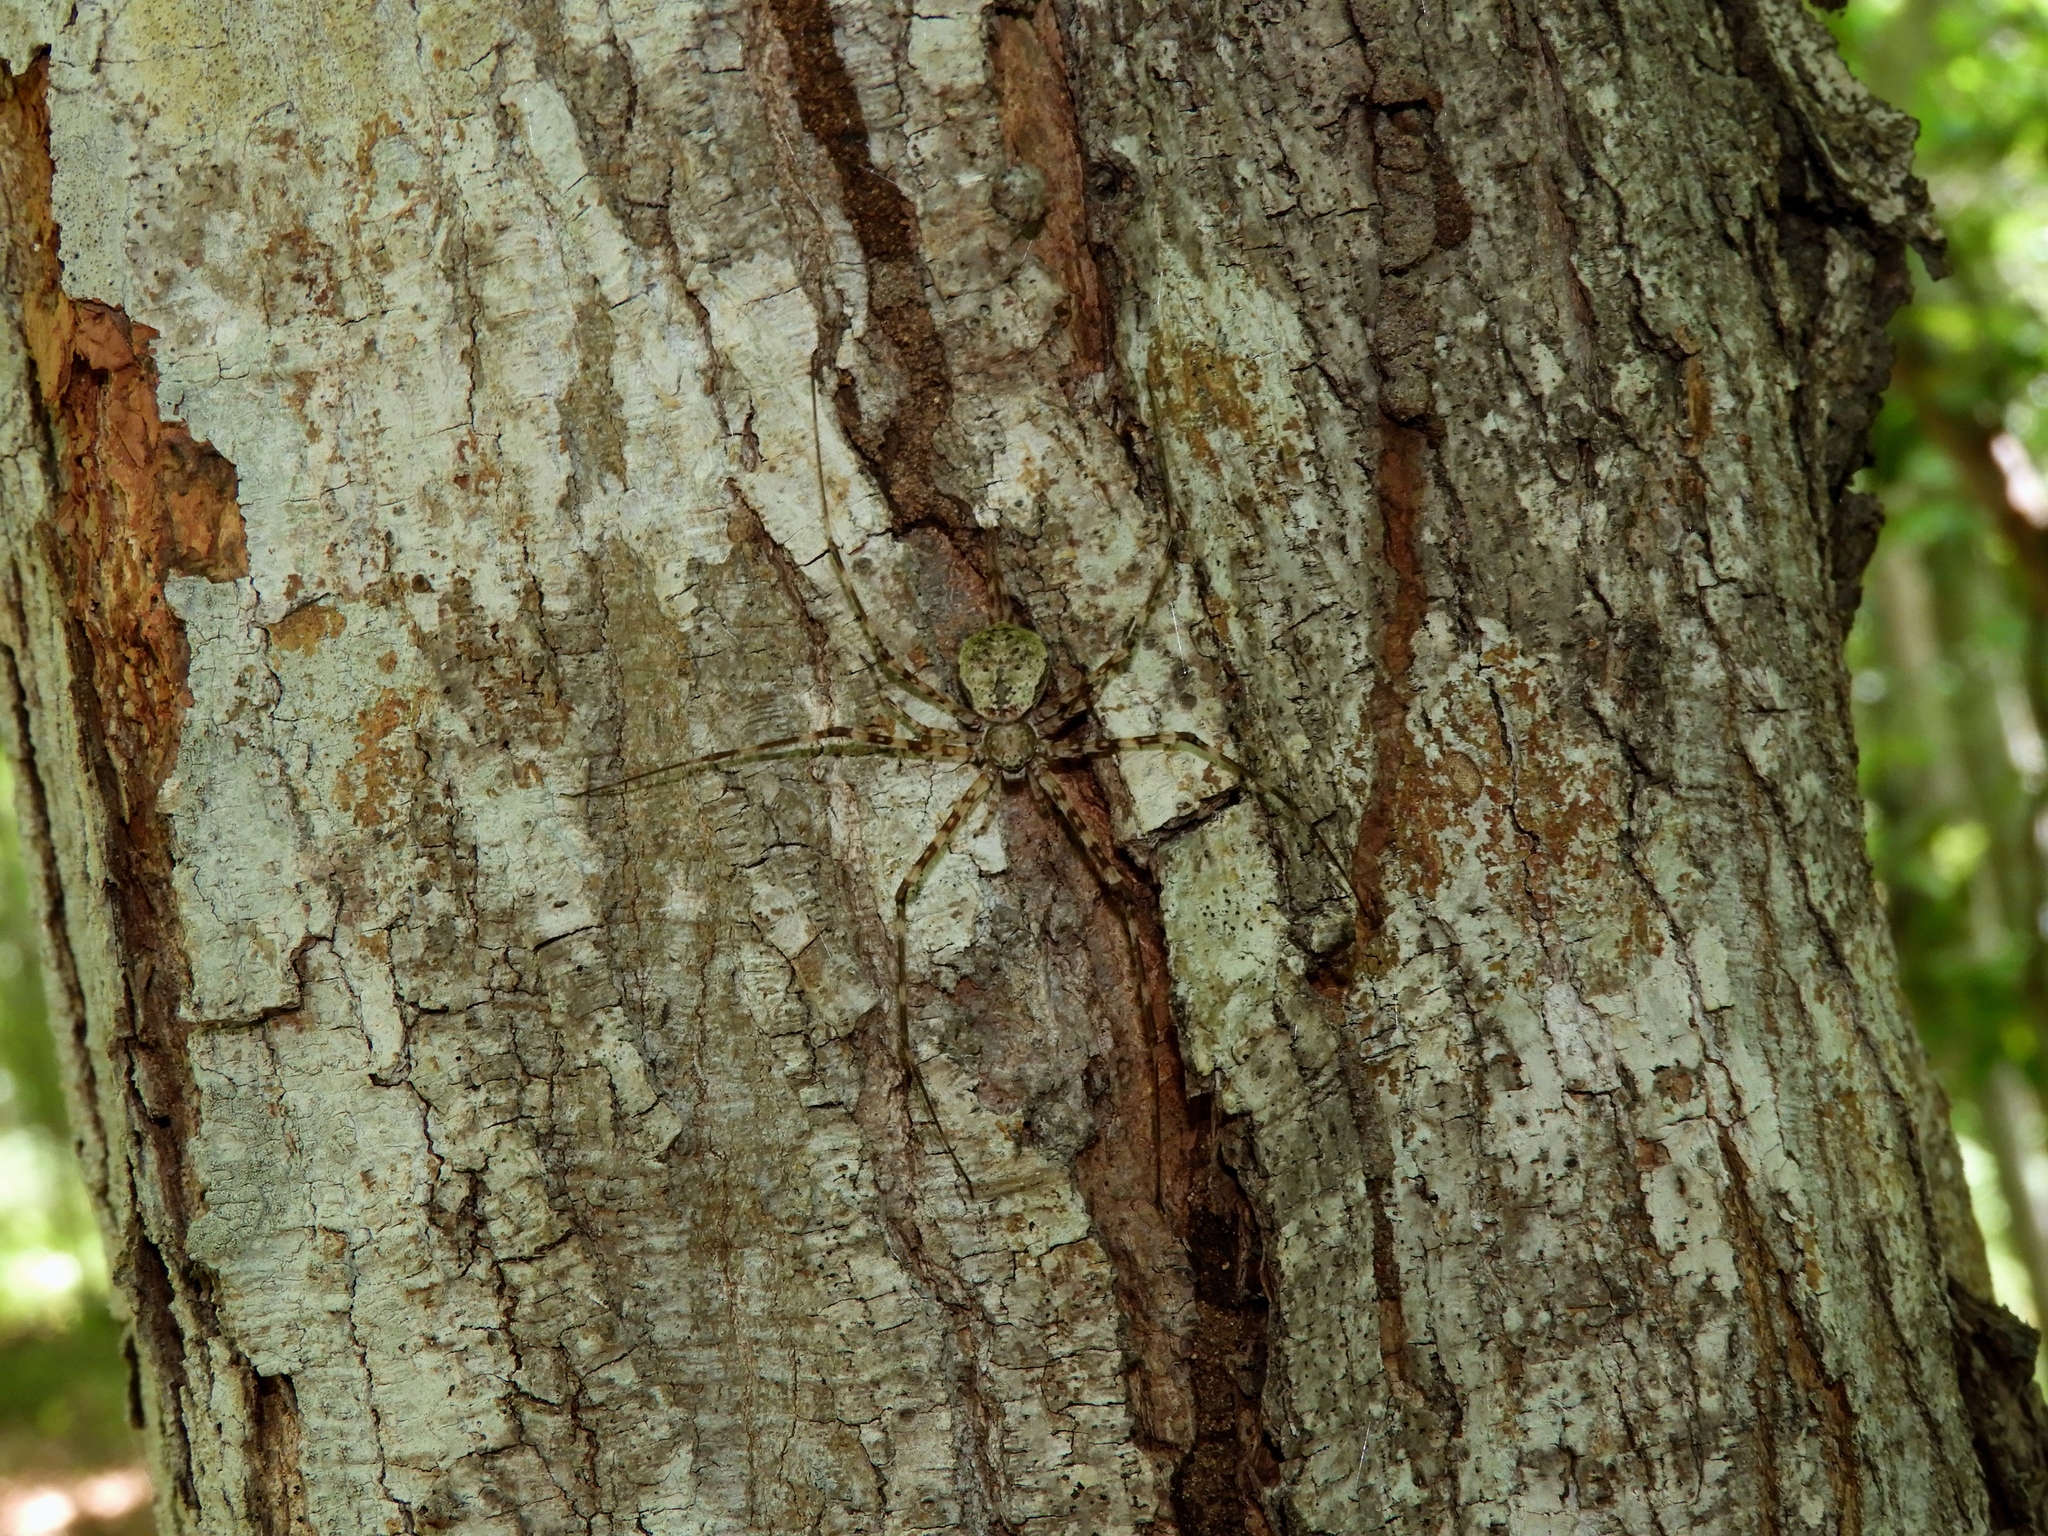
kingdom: Animalia
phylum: Arthropoda
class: Arachnida
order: Araneae
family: Hersiliidae
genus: Neotama
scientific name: Neotama mexicana
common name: Tree trunk spiders
